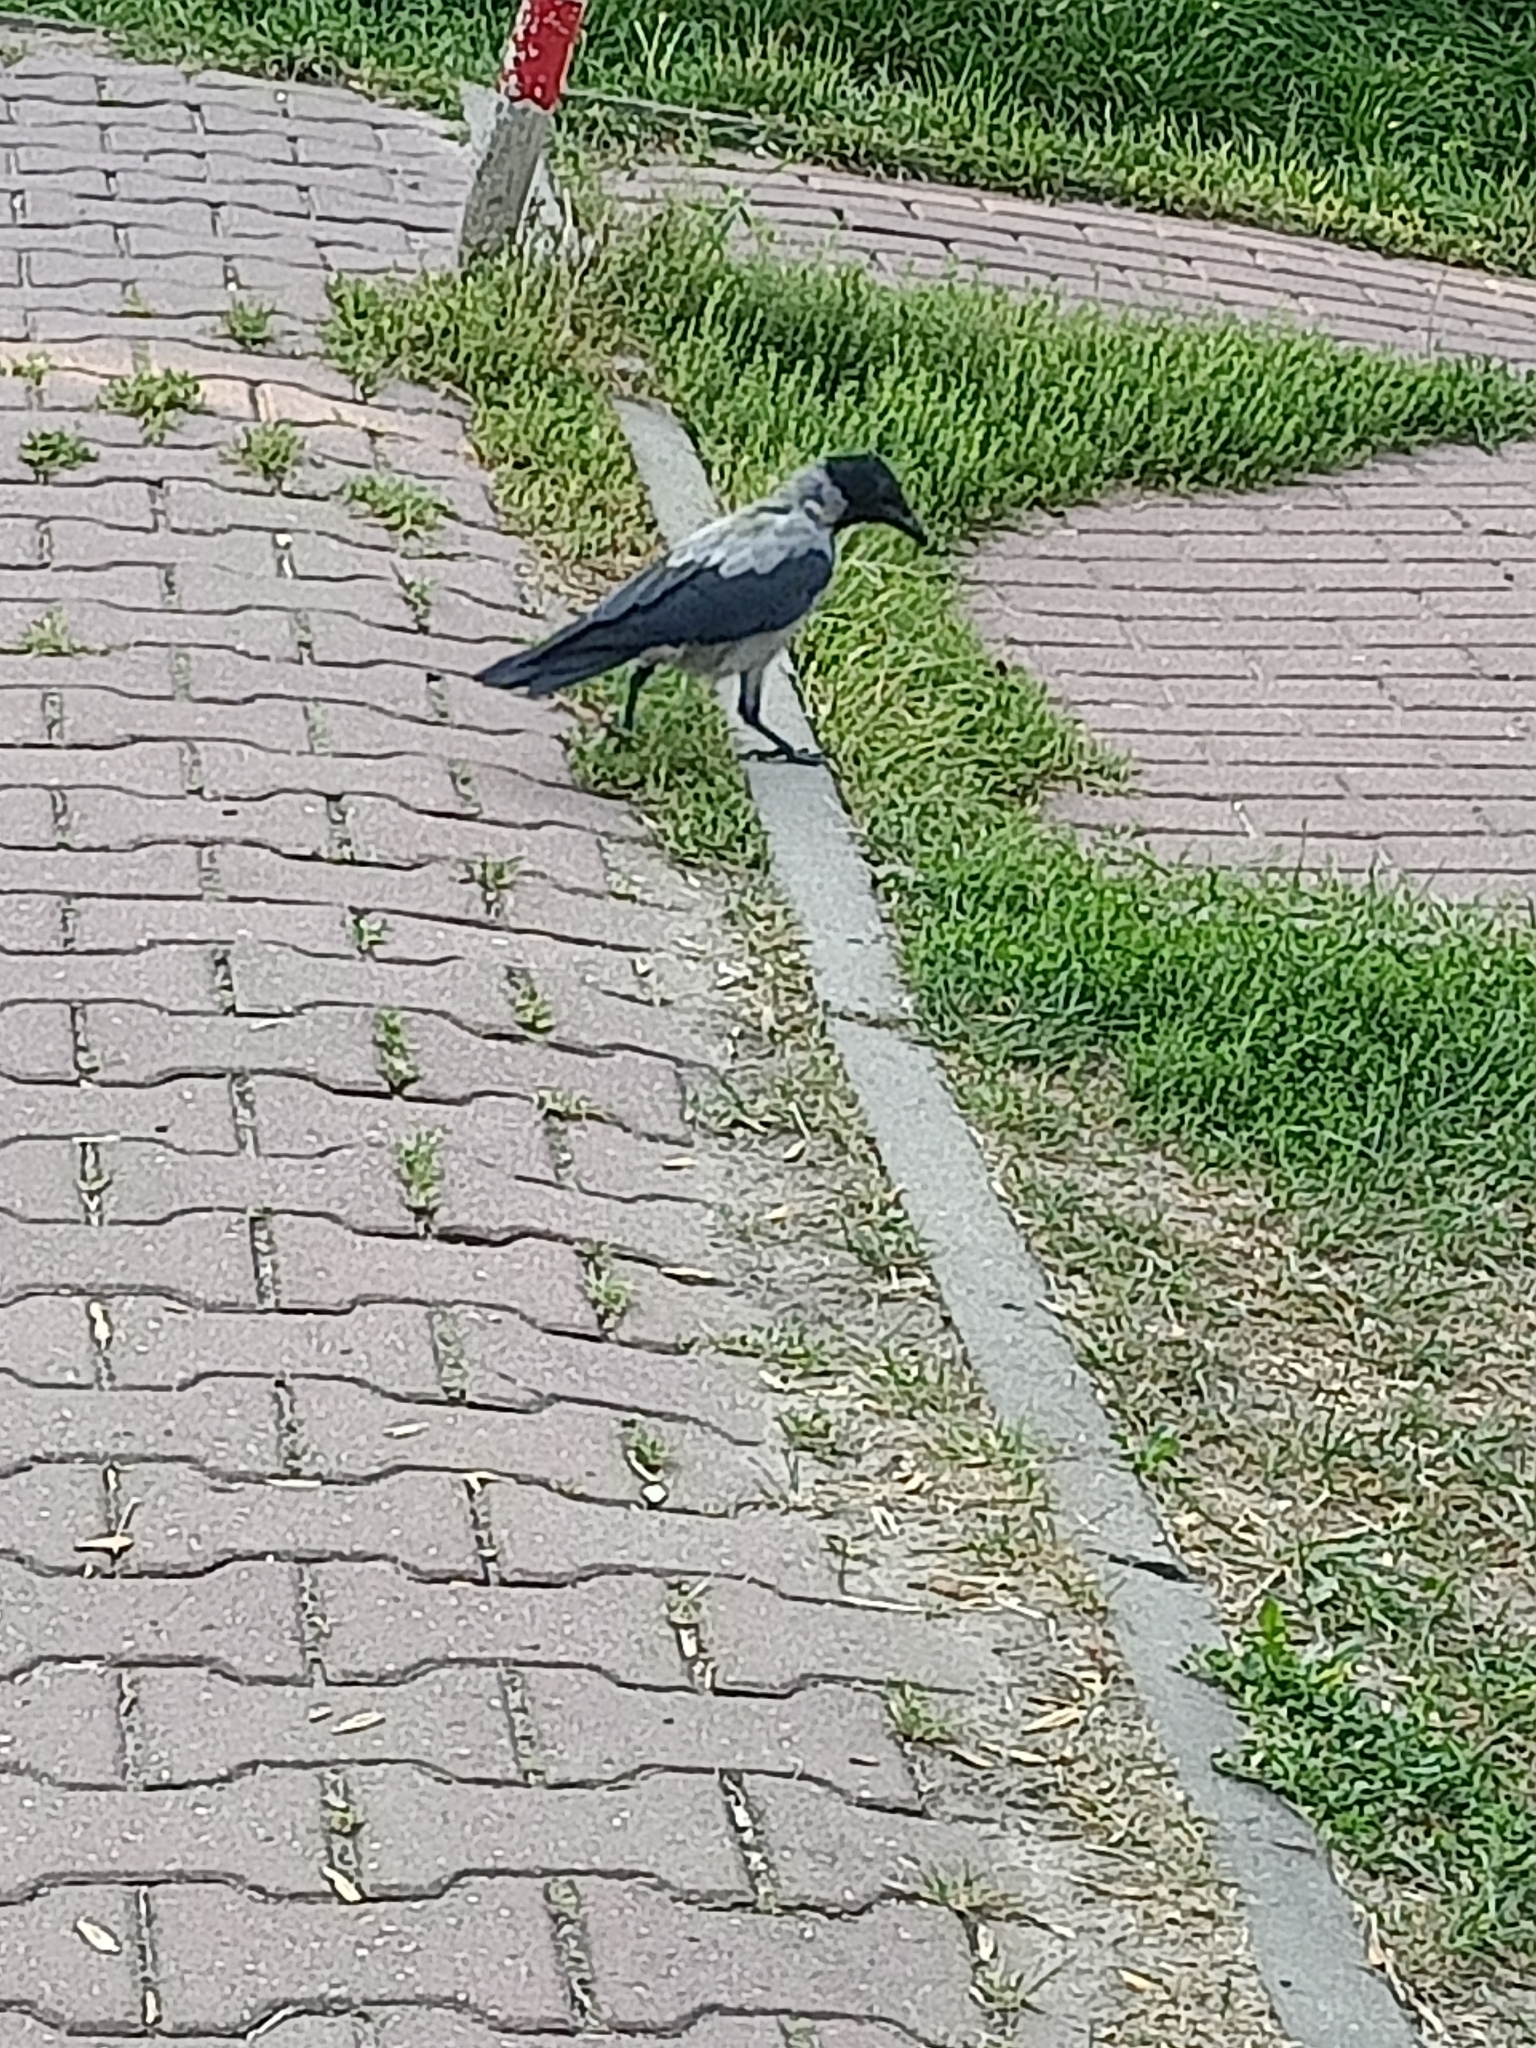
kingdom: Animalia
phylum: Chordata
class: Aves
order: Passeriformes
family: Corvidae
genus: Corvus
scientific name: Corvus cornix
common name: Hooded crow
